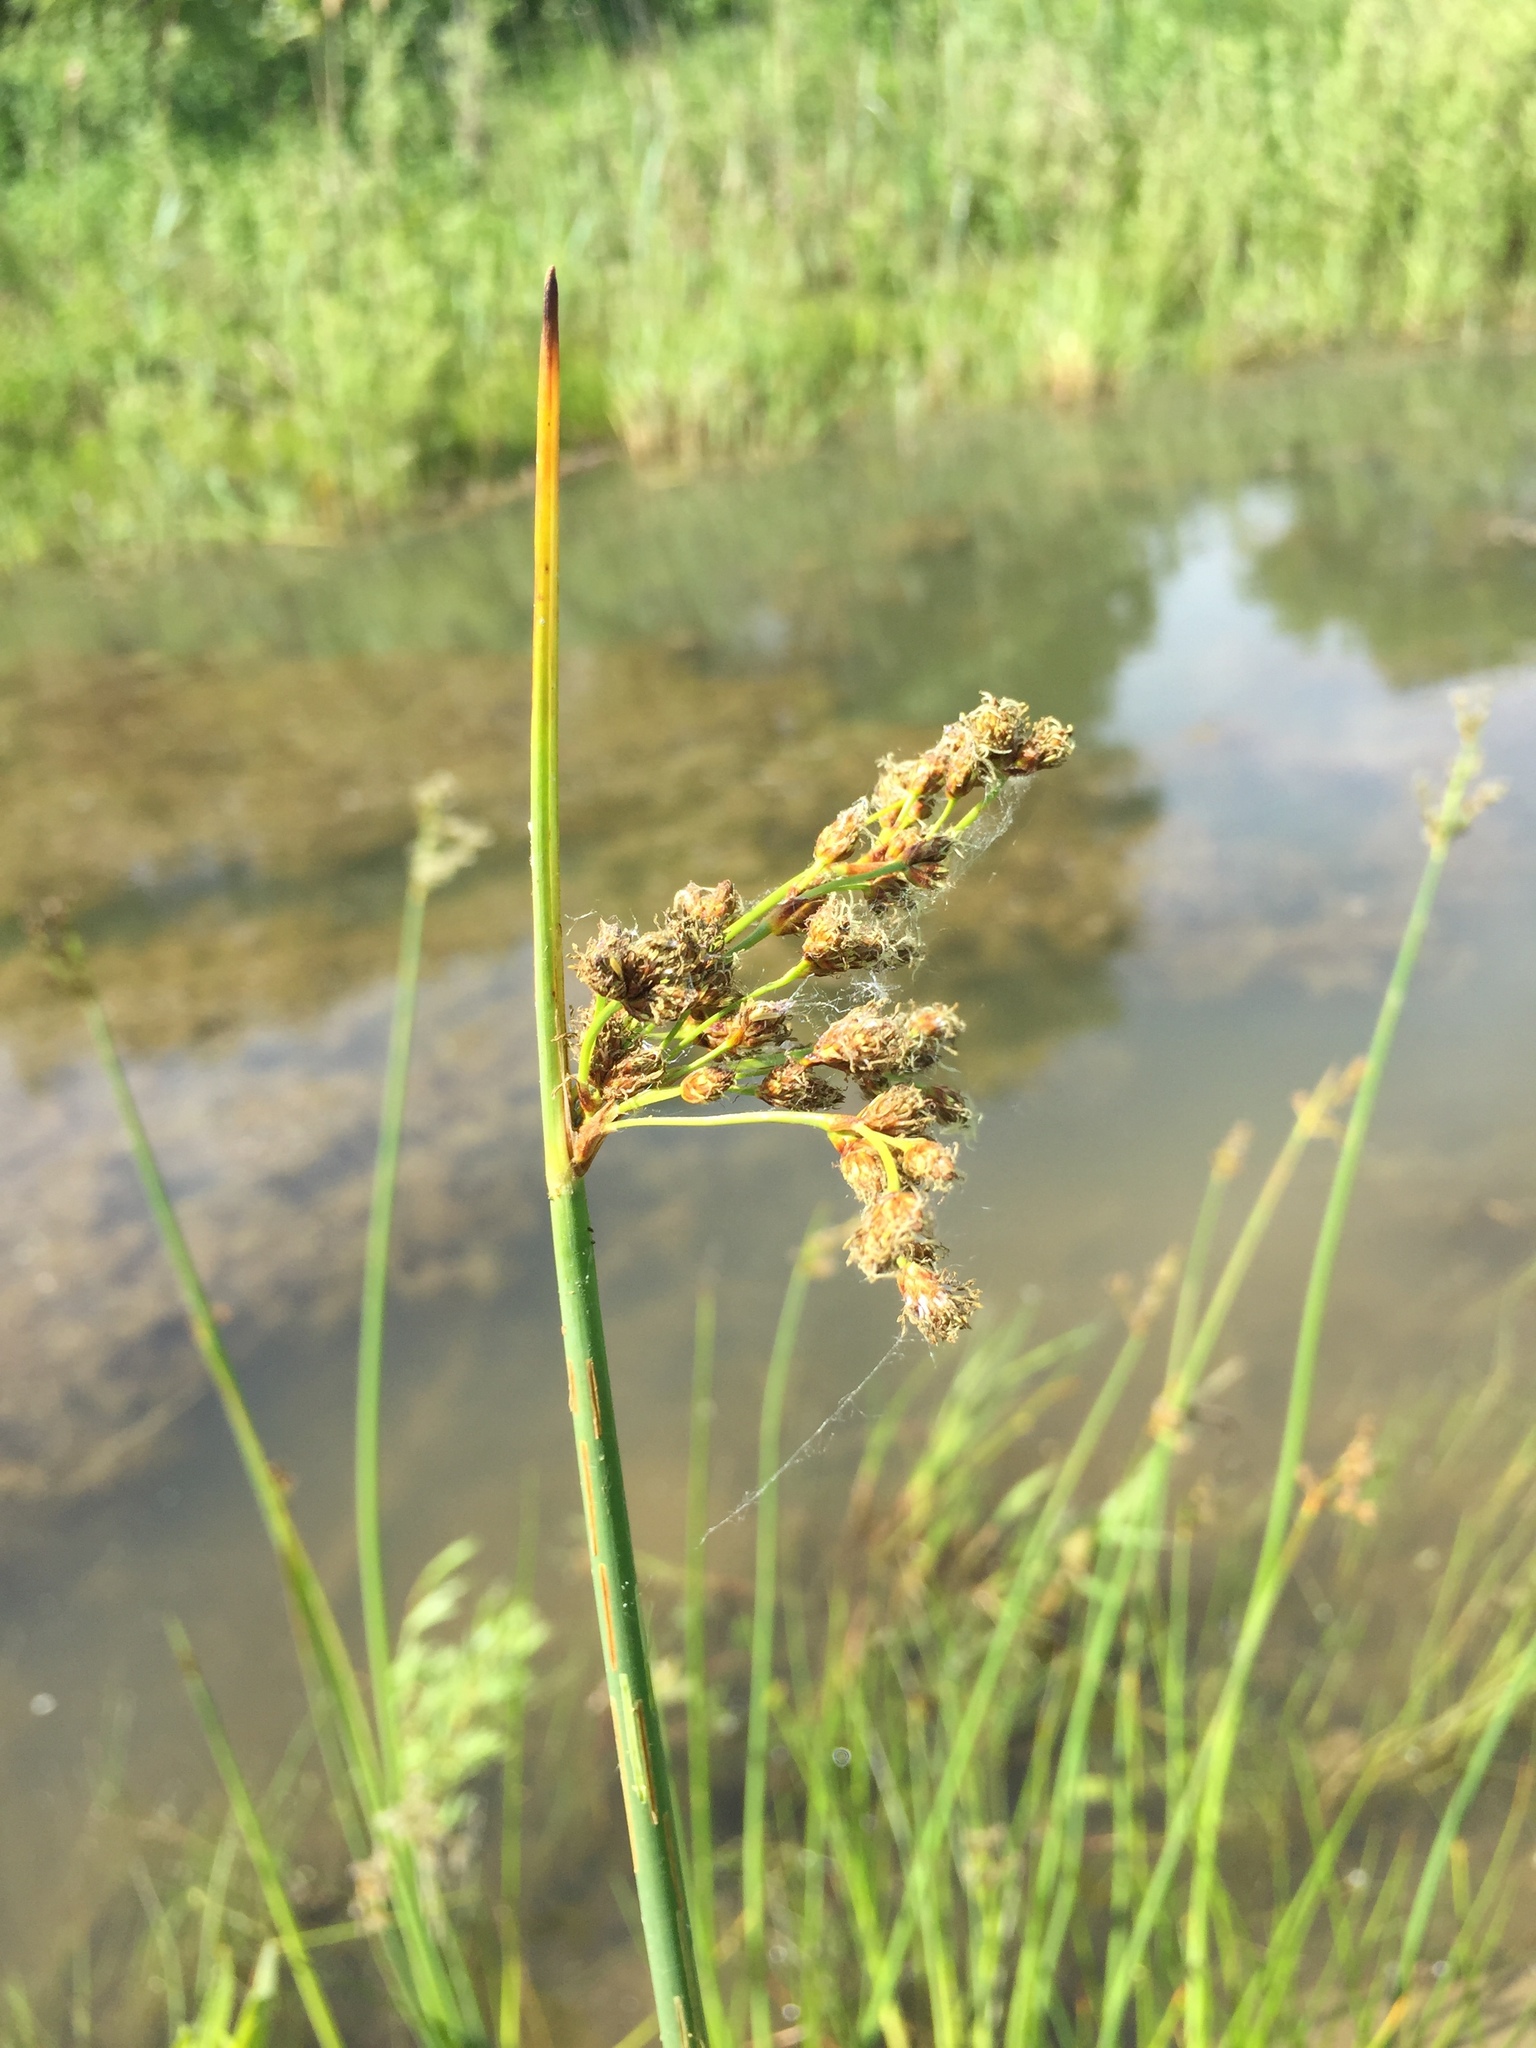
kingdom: Plantae
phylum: Tracheophyta
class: Liliopsida
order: Poales
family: Cyperaceae
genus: Schoenoplectus
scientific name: Schoenoplectus tabernaemontani
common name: Grey club-rush
